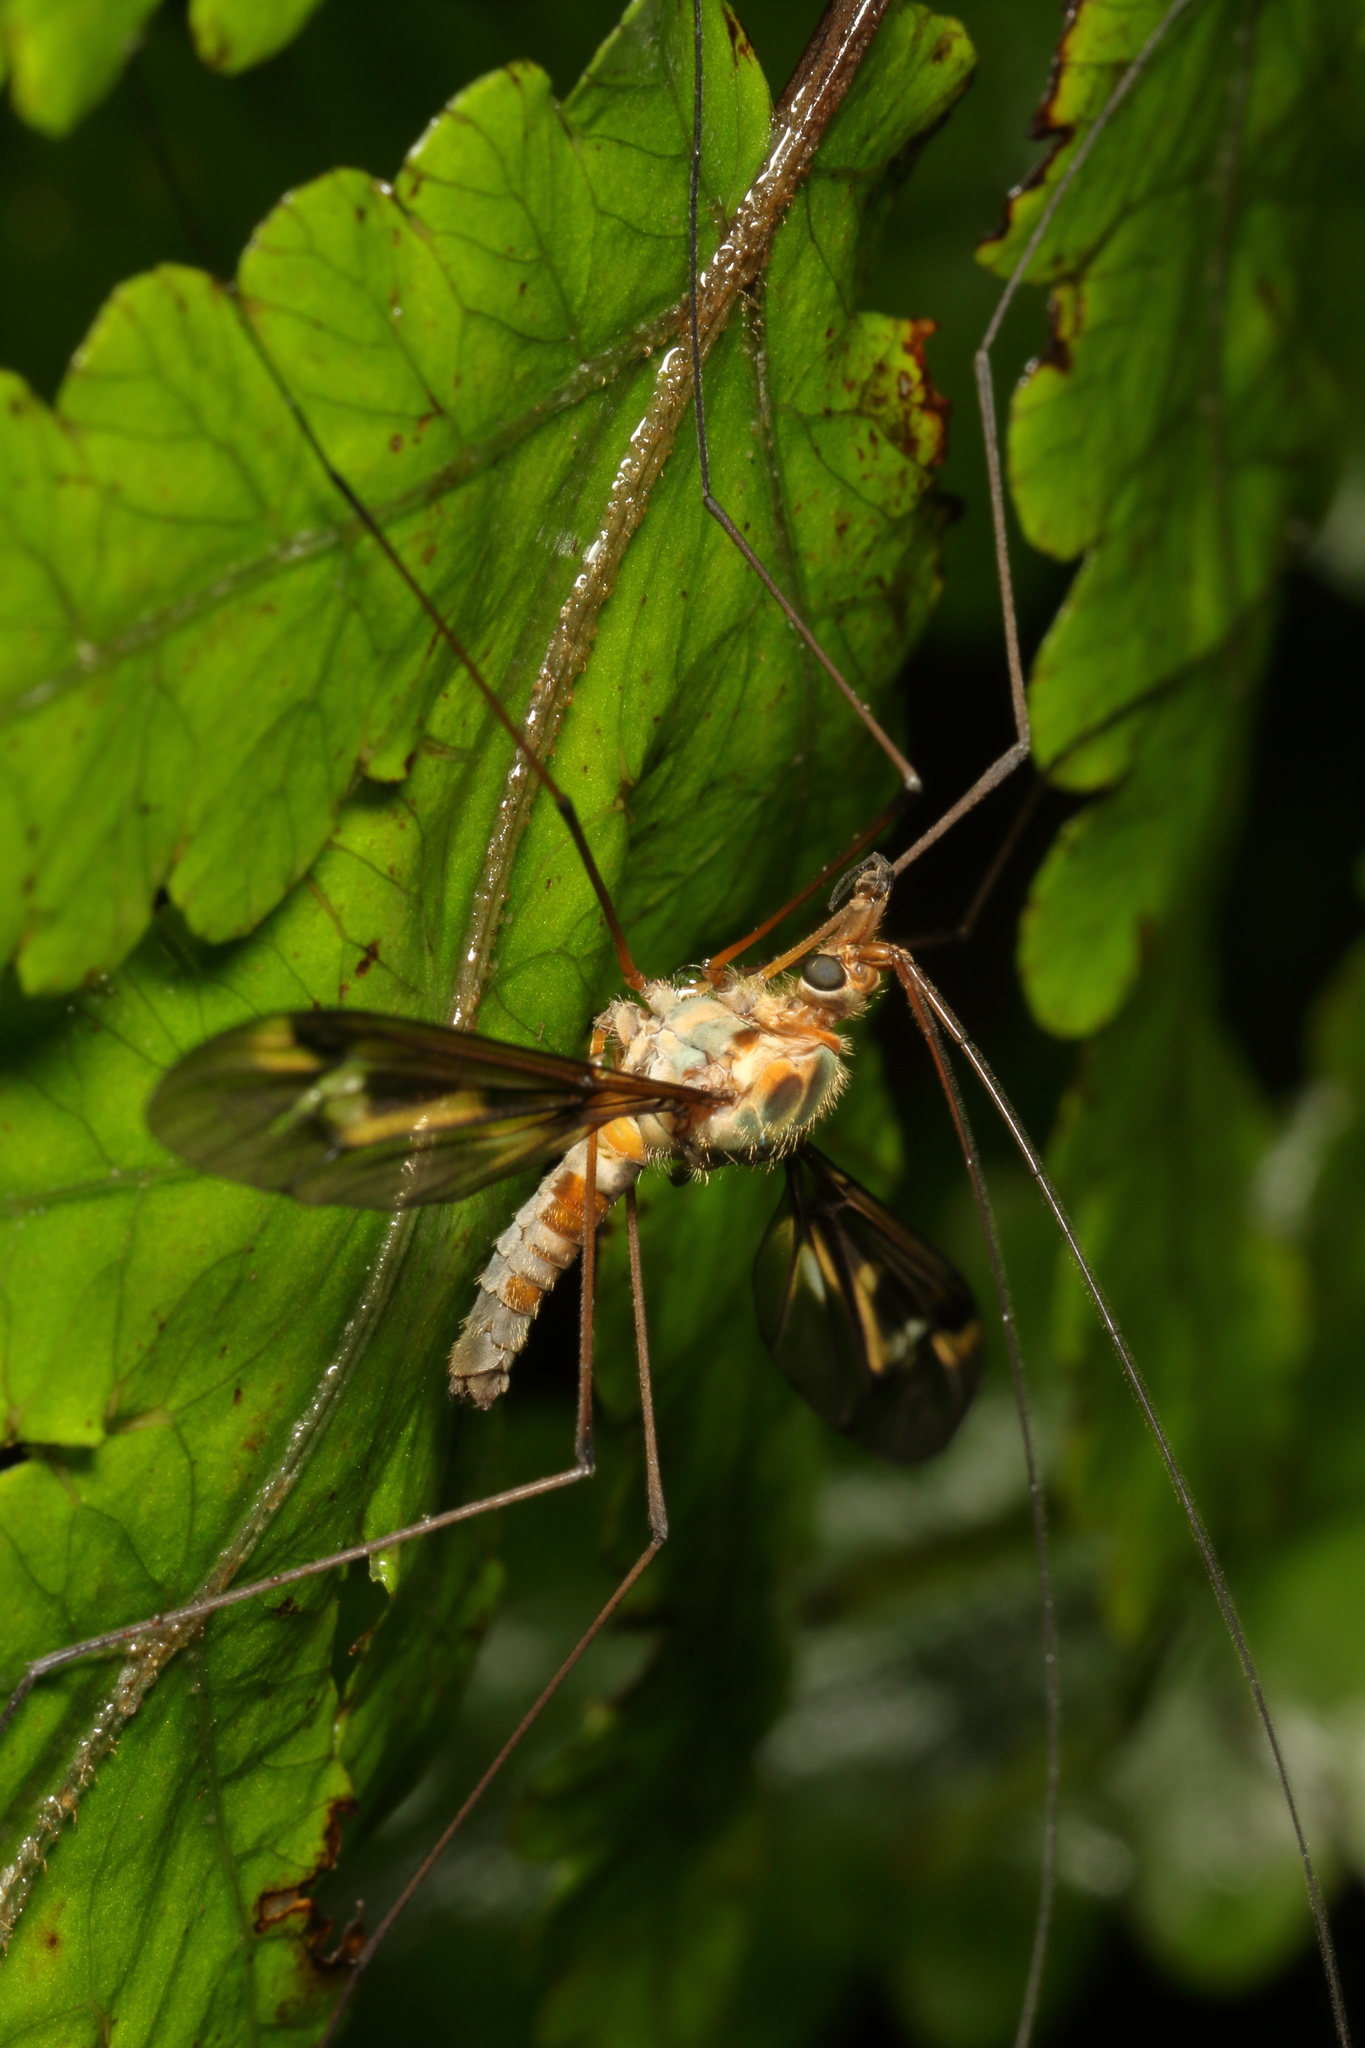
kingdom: Animalia
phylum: Arthropoda
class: Insecta
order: Diptera
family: Tipulidae
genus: Leptotarsus
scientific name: Leptotarsus lunatus
